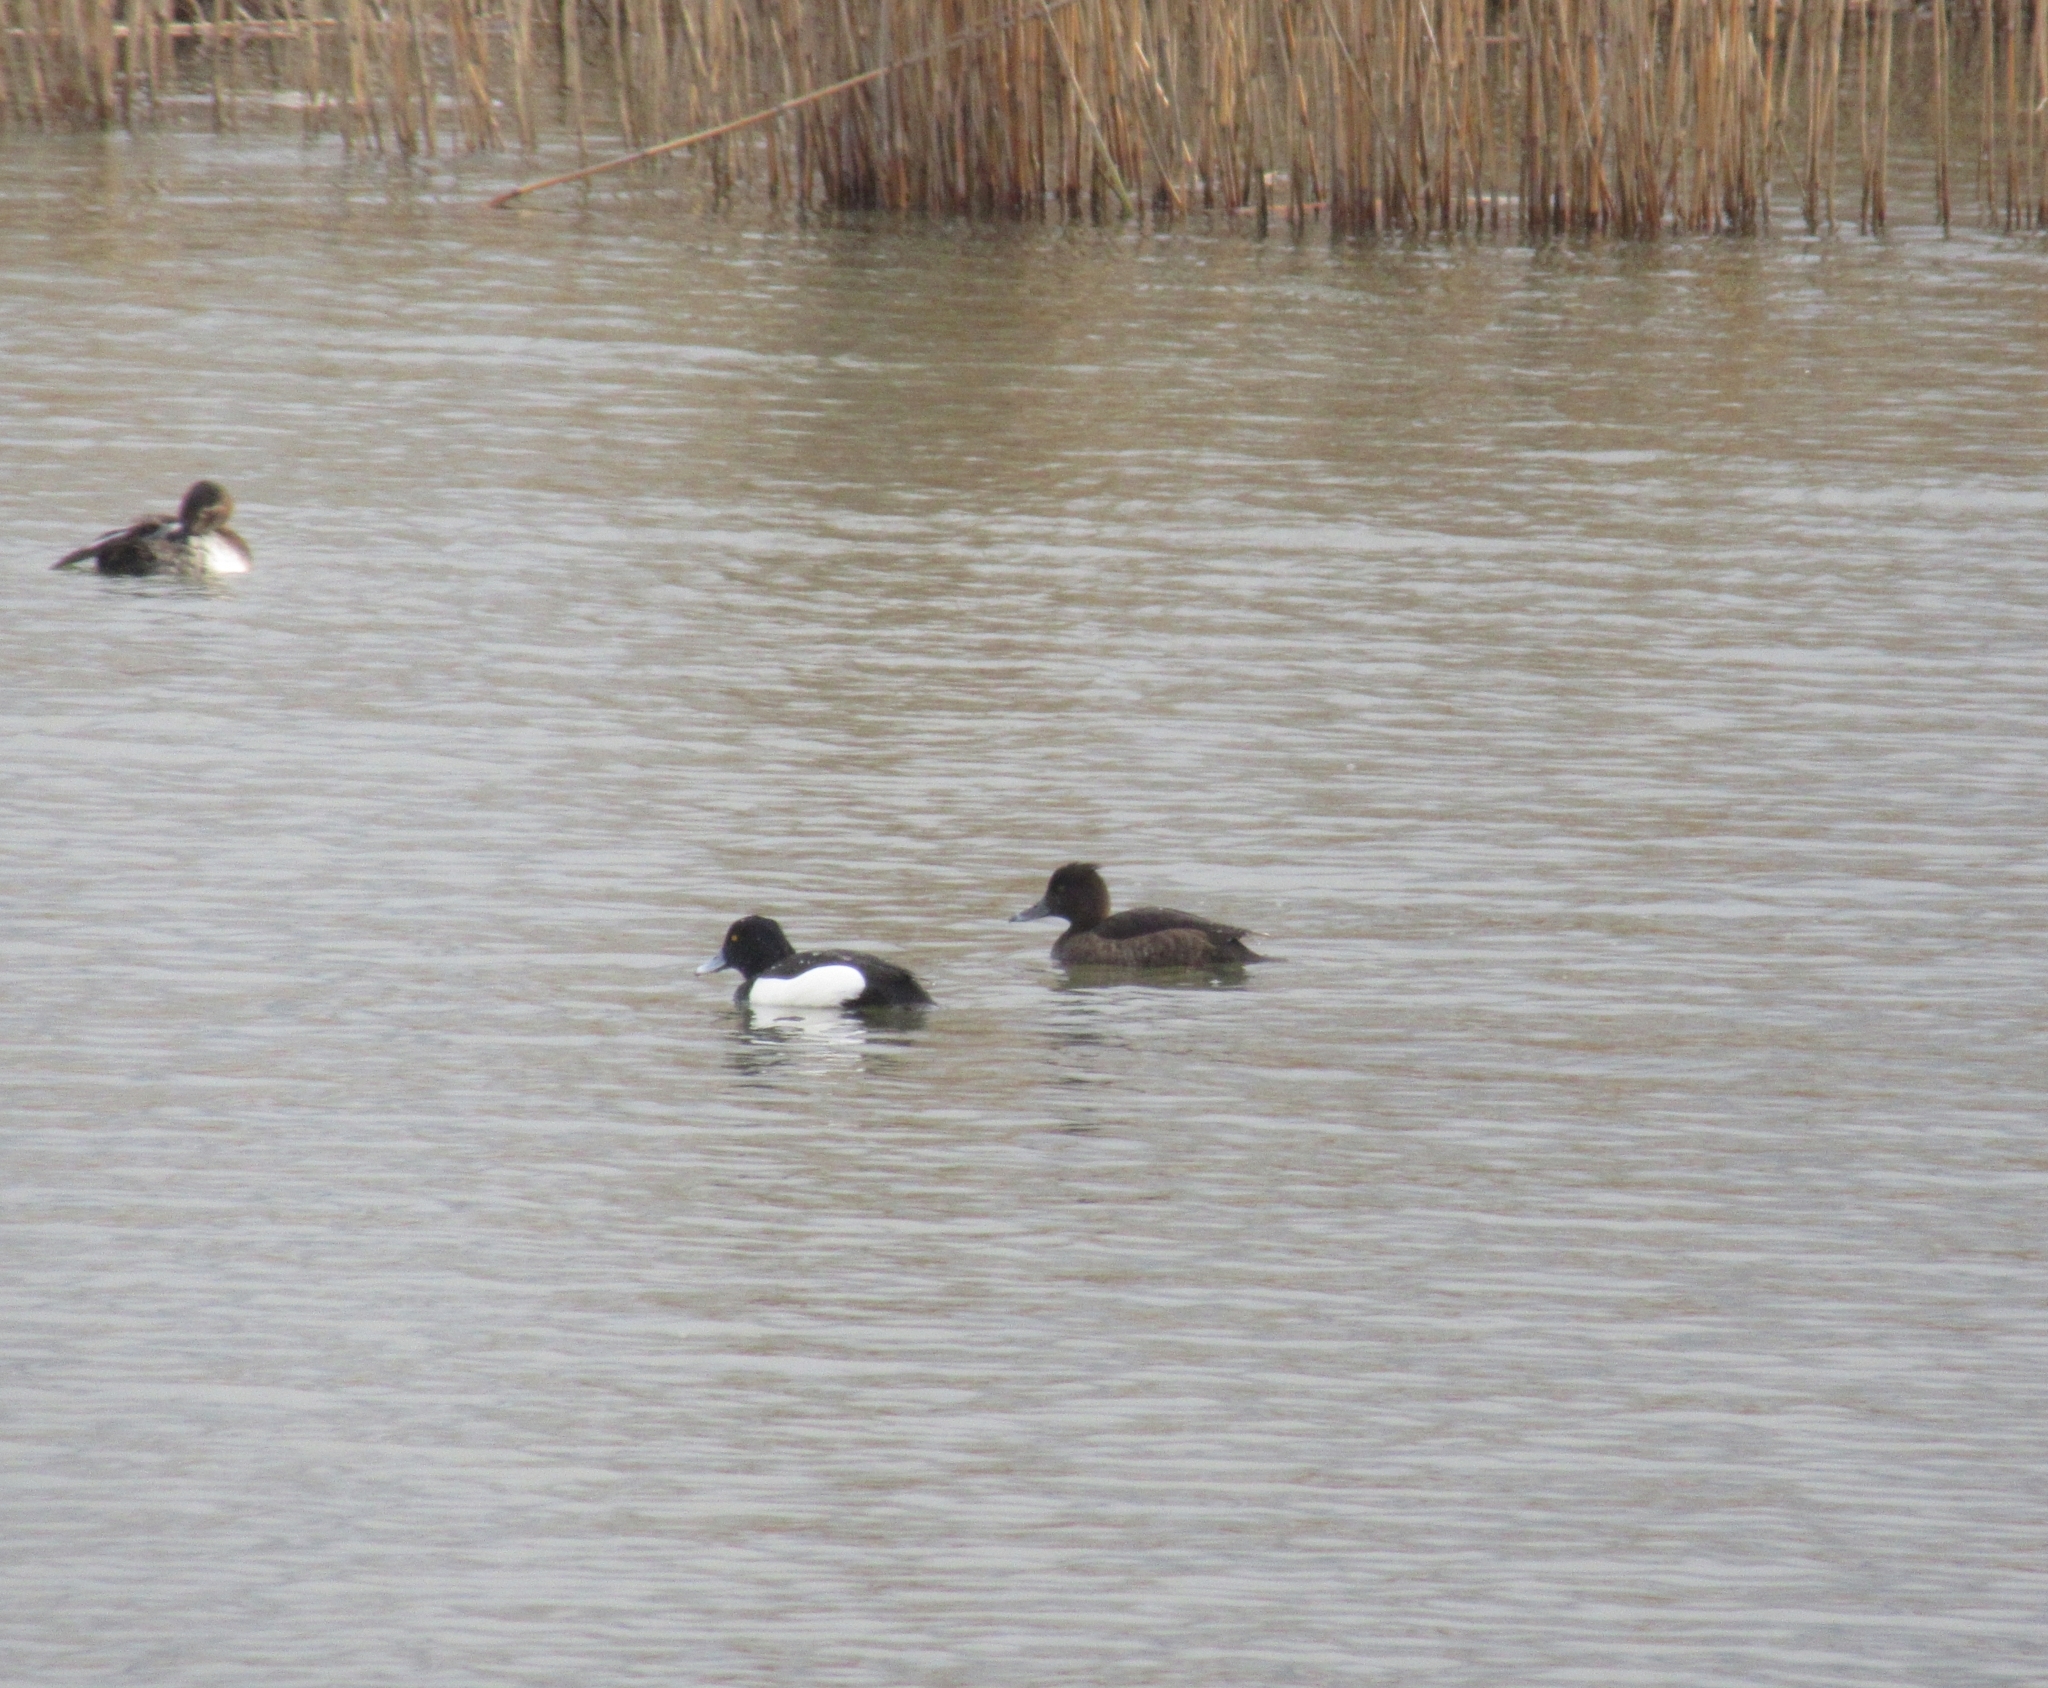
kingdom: Animalia
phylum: Chordata
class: Aves
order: Anseriformes
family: Anatidae
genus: Aythya
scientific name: Aythya fuligula
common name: Tufted duck
